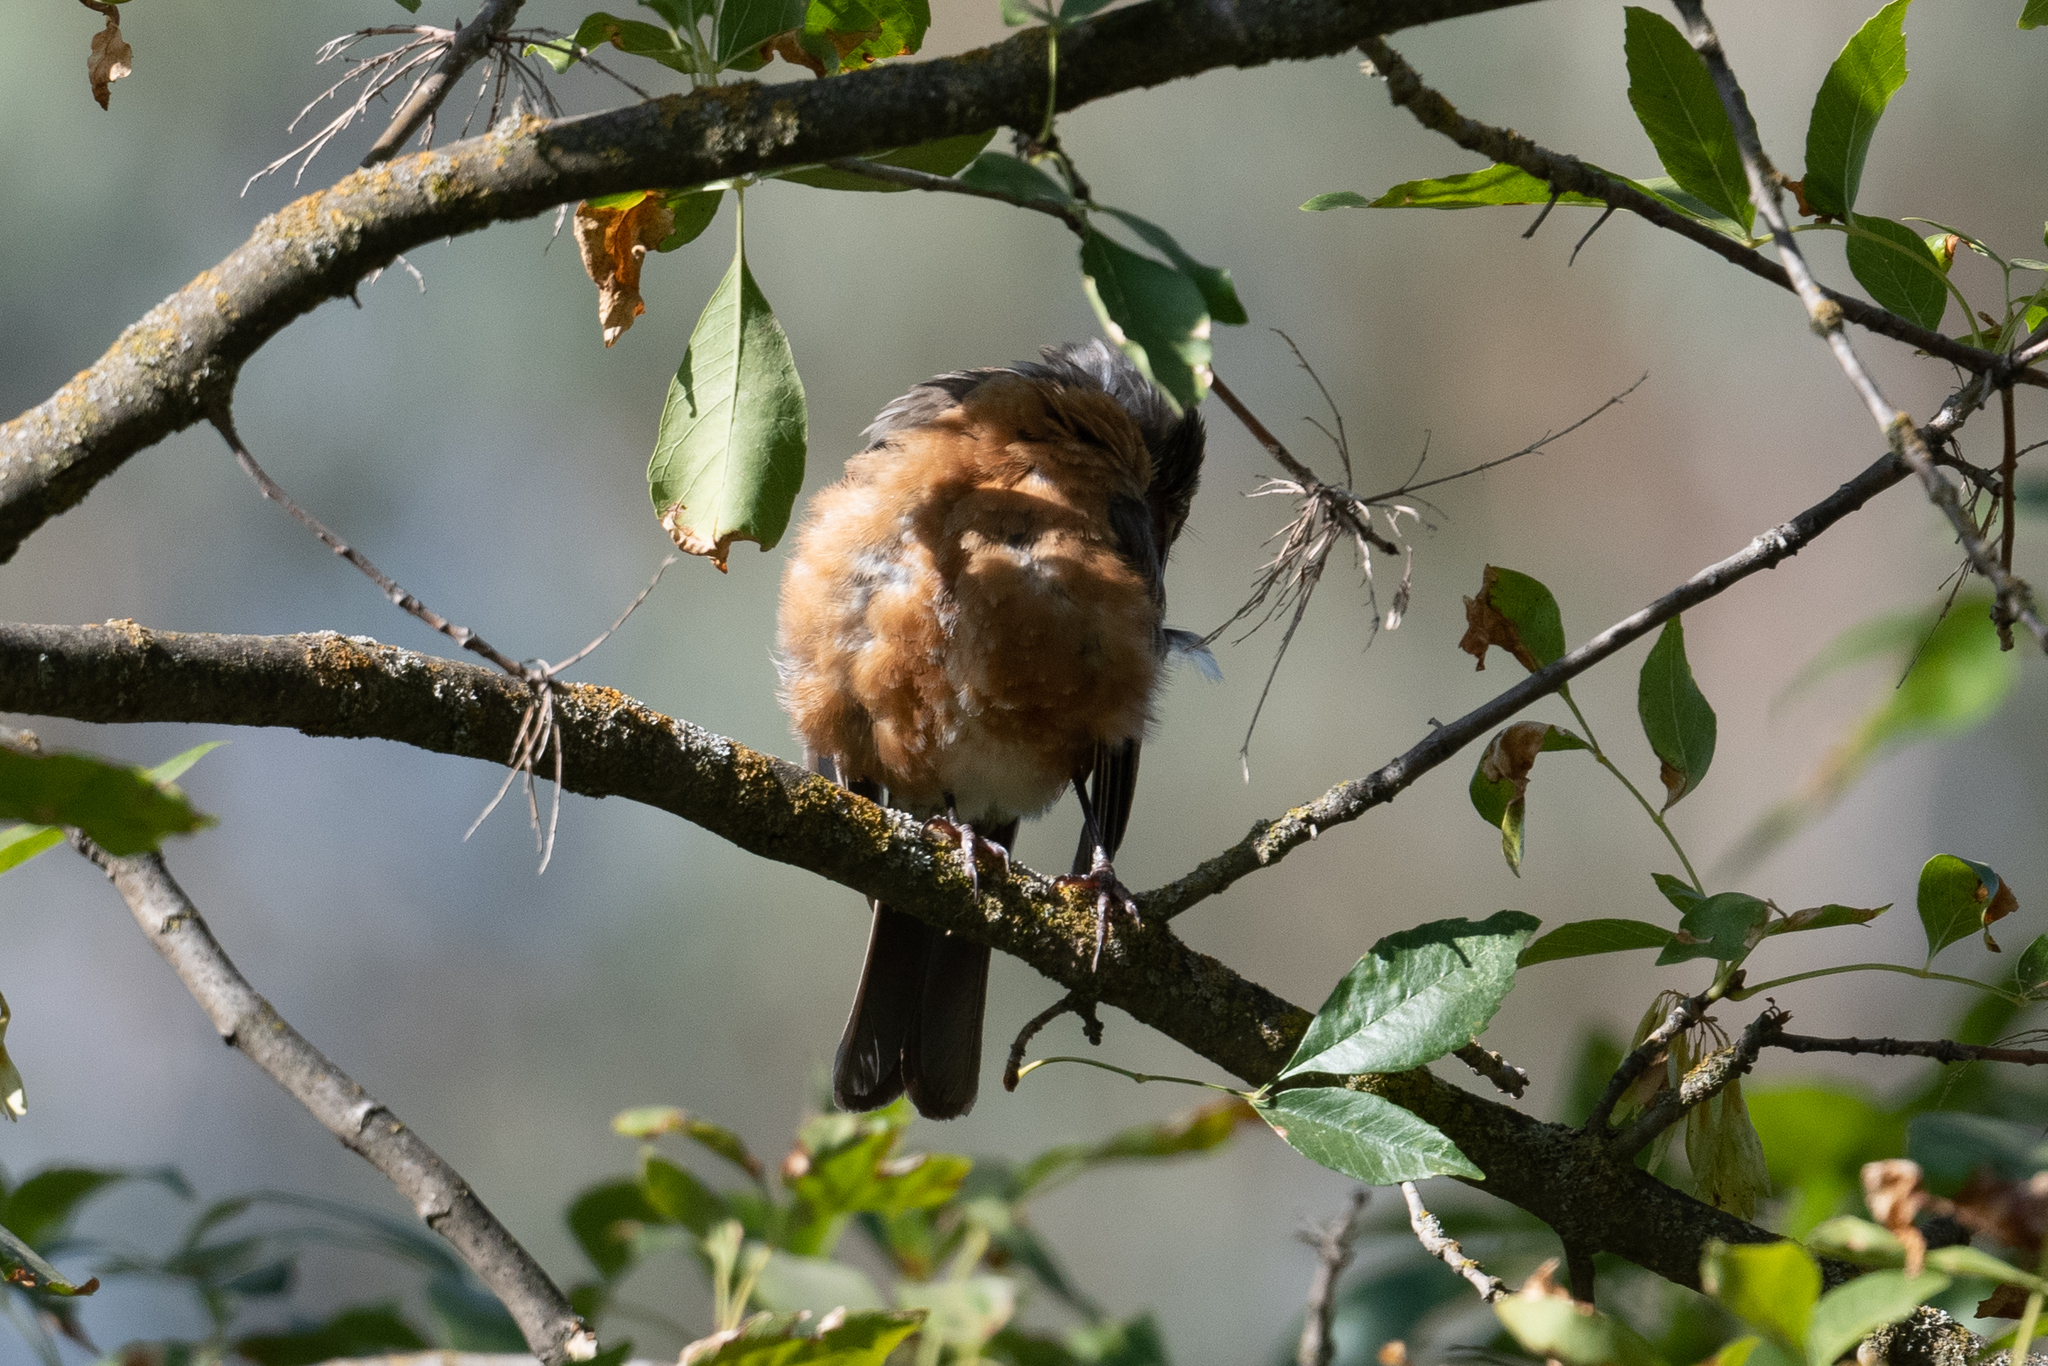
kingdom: Animalia
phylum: Chordata
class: Aves
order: Passeriformes
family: Turdidae
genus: Turdus
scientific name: Turdus migratorius
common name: American robin
